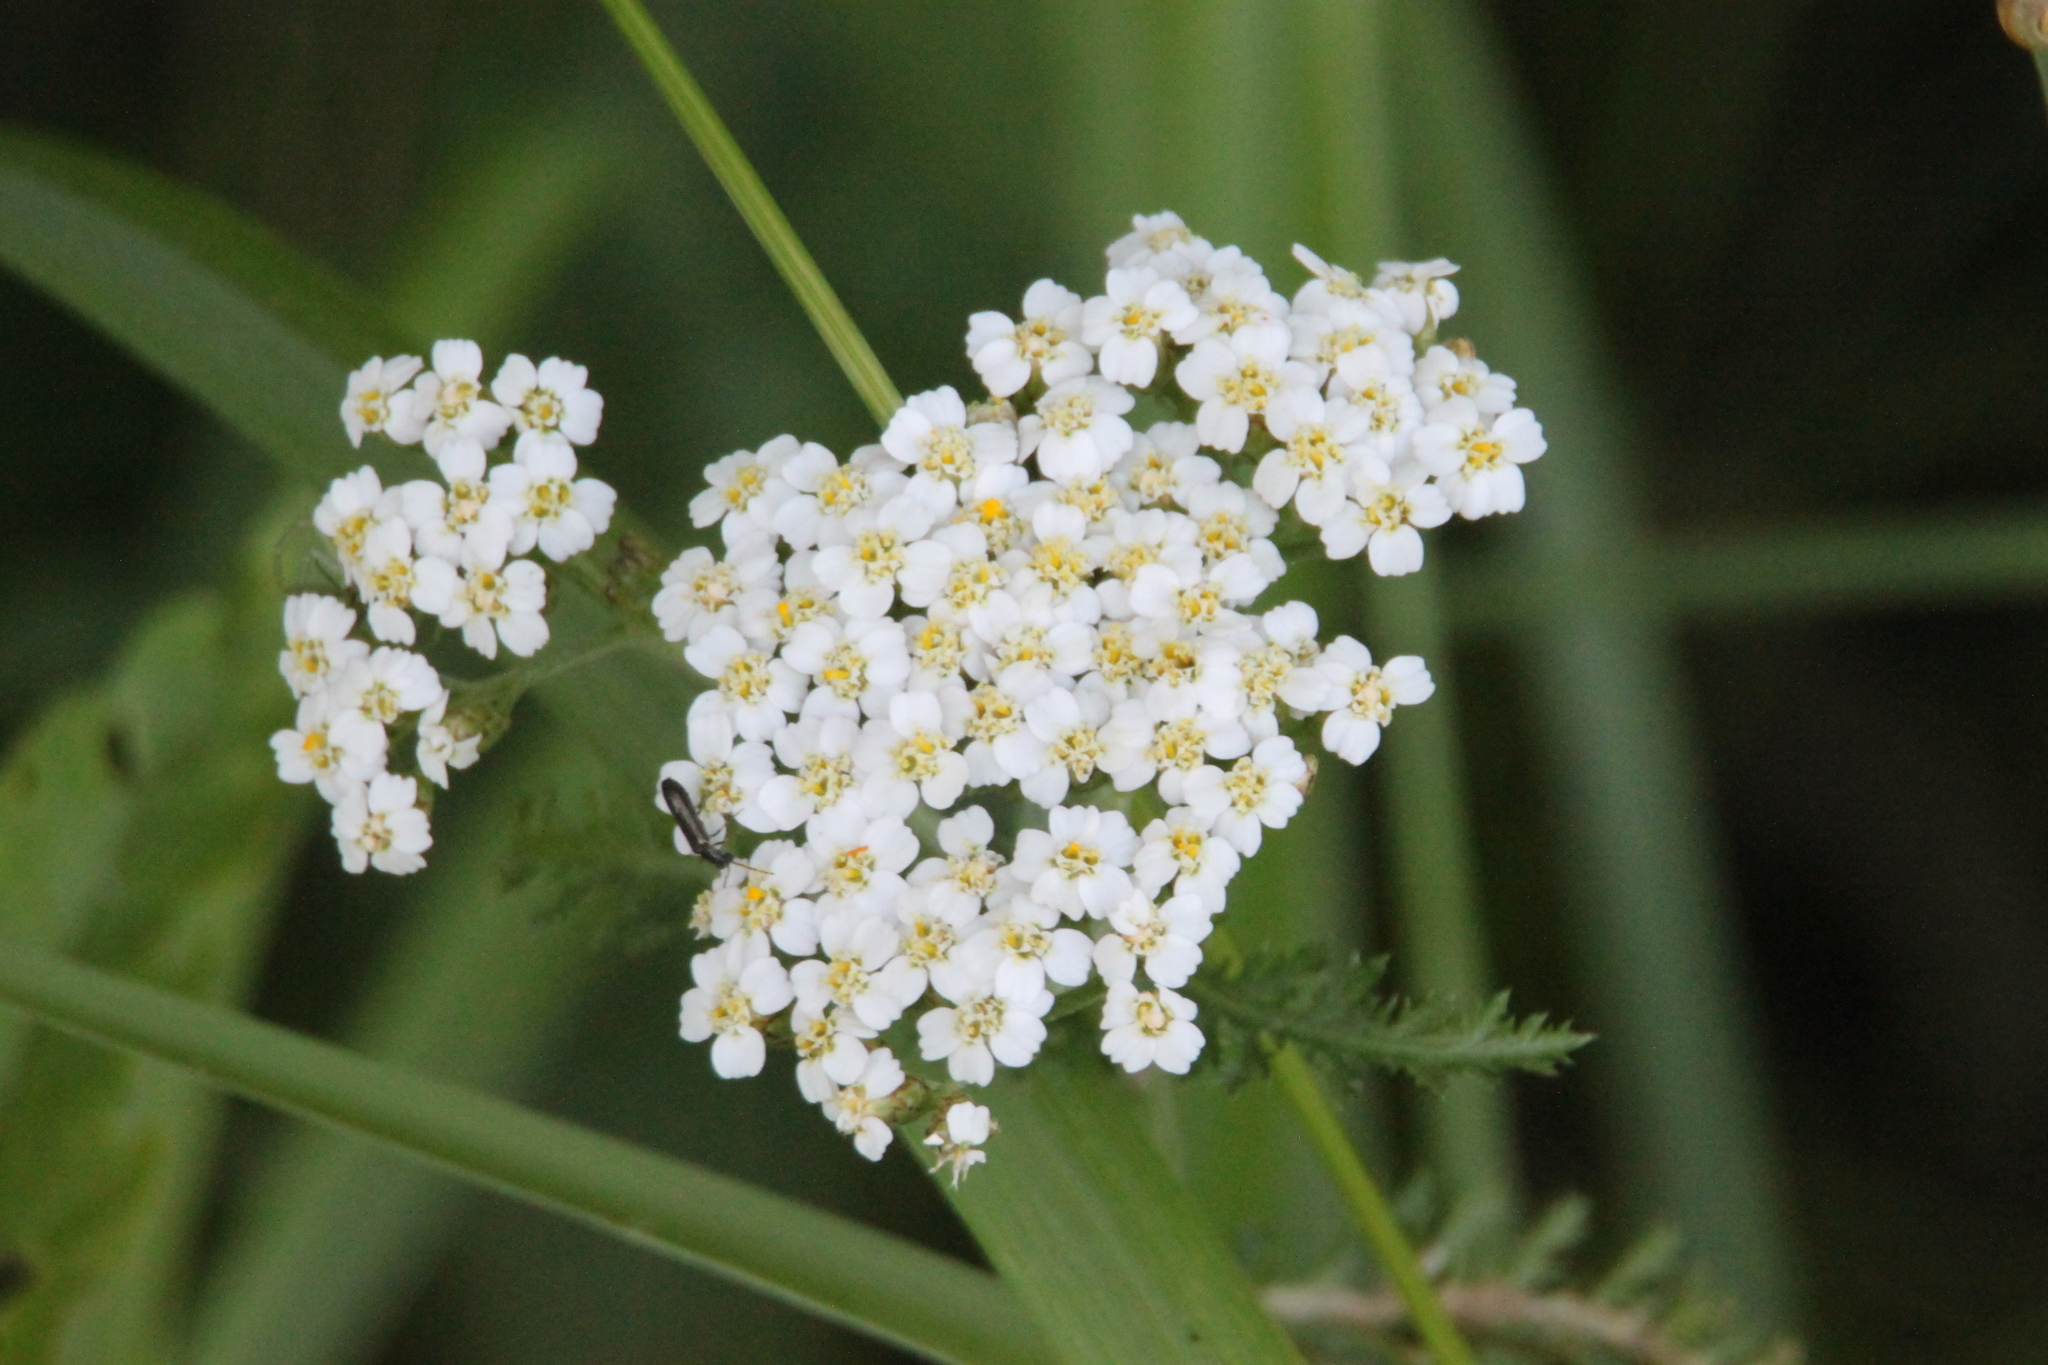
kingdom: Plantae
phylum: Tracheophyta
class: Magnoliopsida
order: Asterales
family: Asteraceae
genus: Achillea
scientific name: Achillea millefolium
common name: Yarrow
